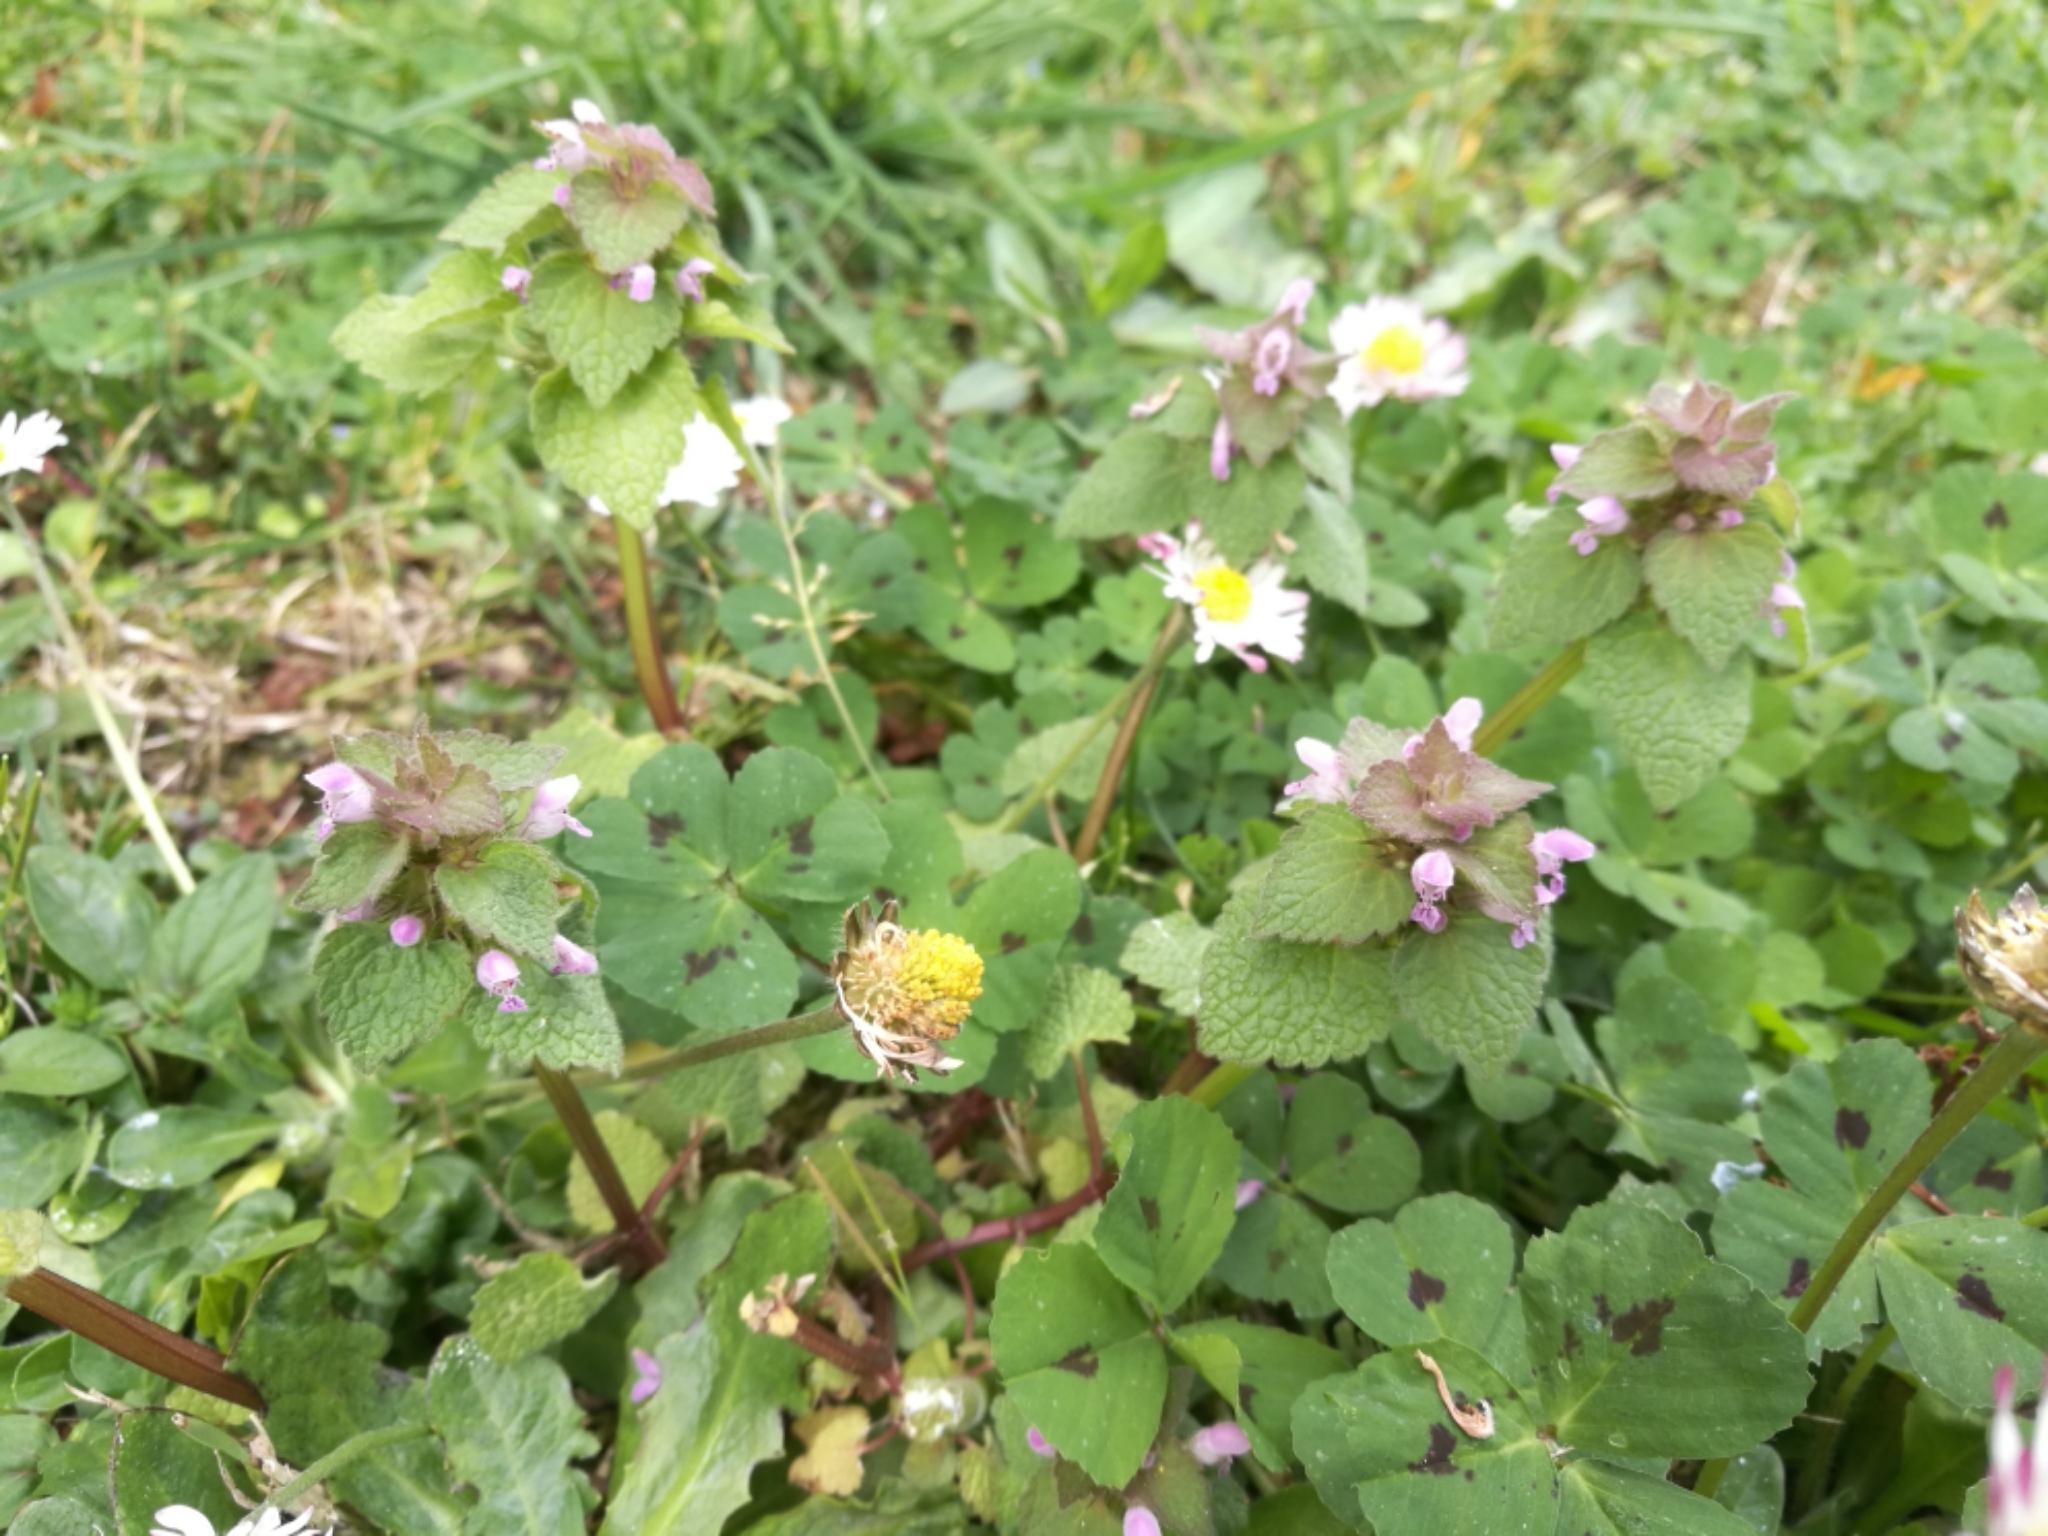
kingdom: Plantae
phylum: Tracheophyta
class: Magnoliopsida
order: Lamiales
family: Lamiaceae
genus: Lamium
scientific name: Lamium purpureum
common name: Red dead-nettle
